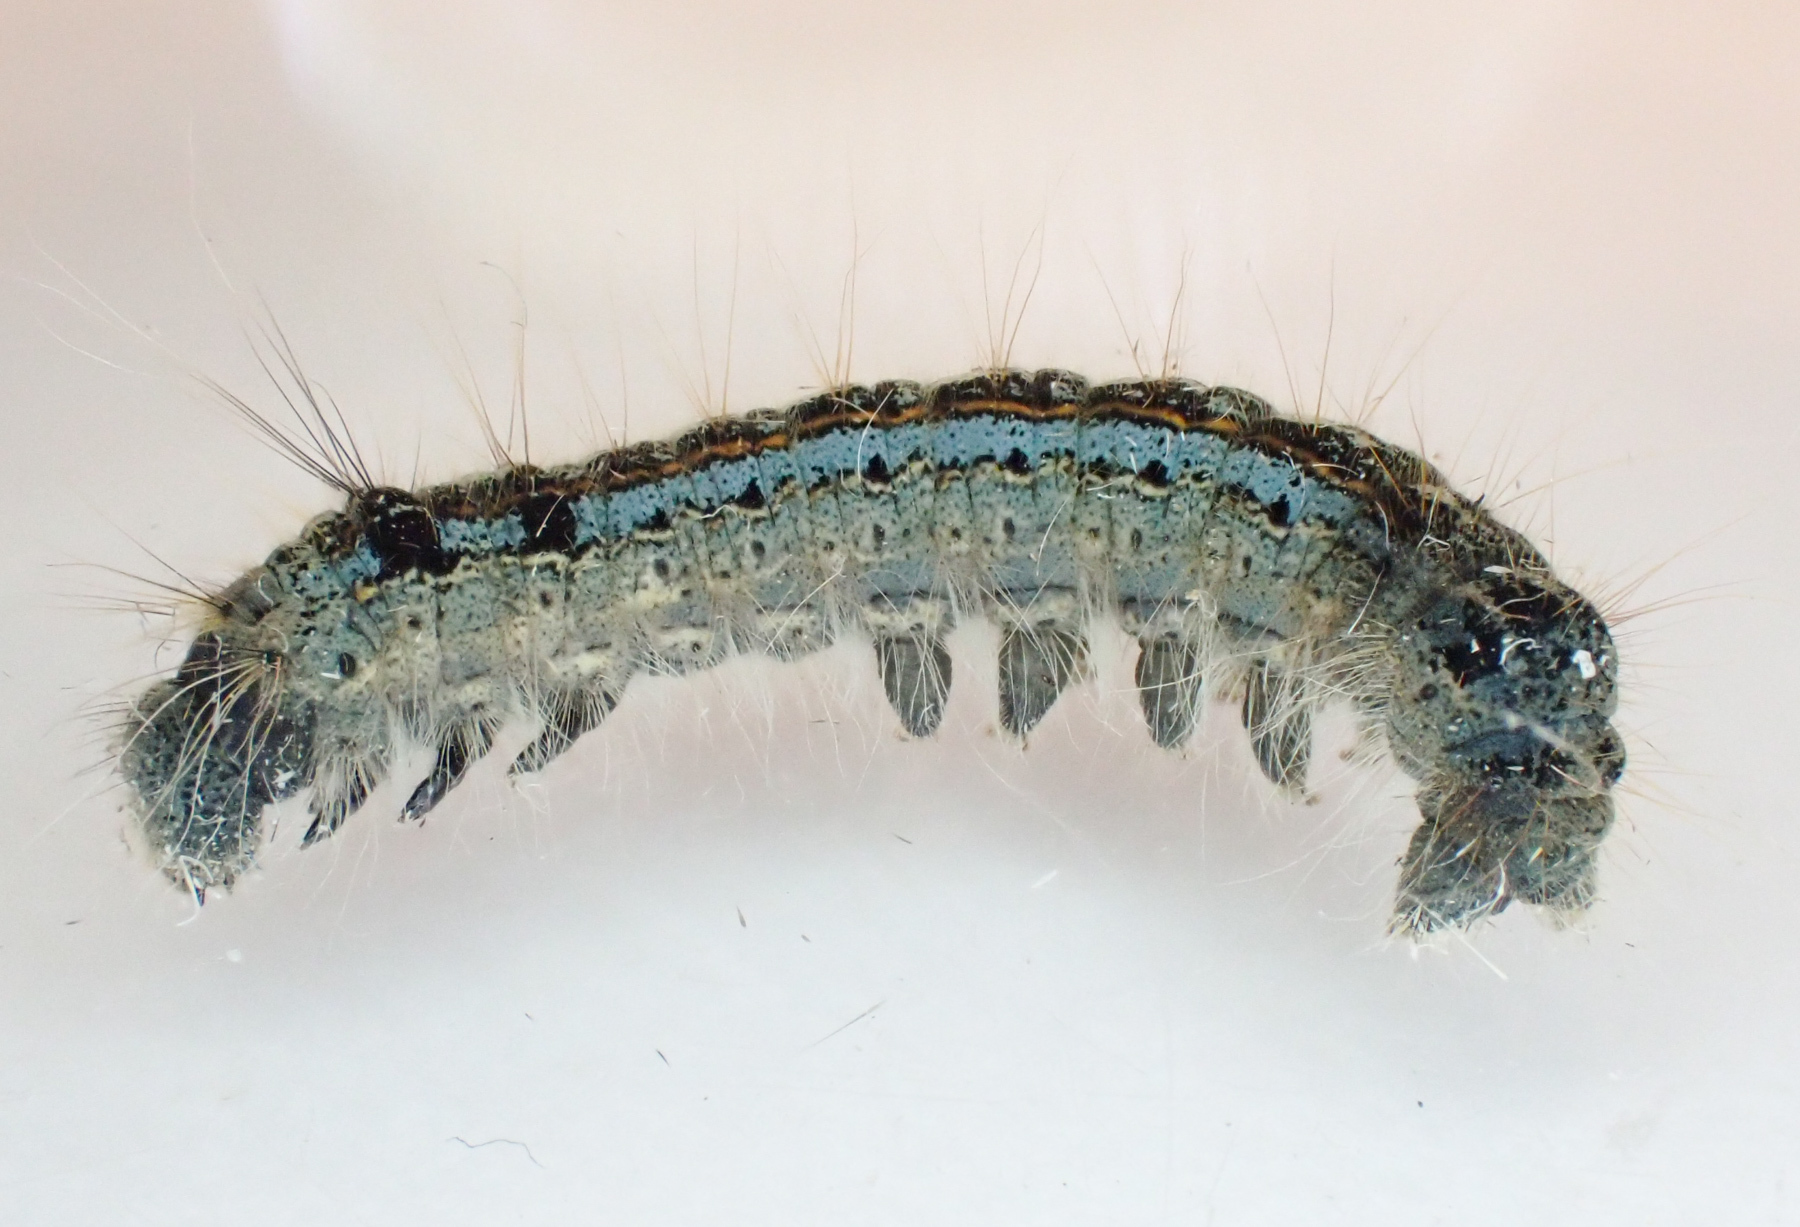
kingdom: Animalia
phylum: Arthropoda
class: Insecta
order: Lepidoptera
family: Lasiocampidae
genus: Malacosoma
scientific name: Malacosoma disstria
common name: Forest tent caterpillar
